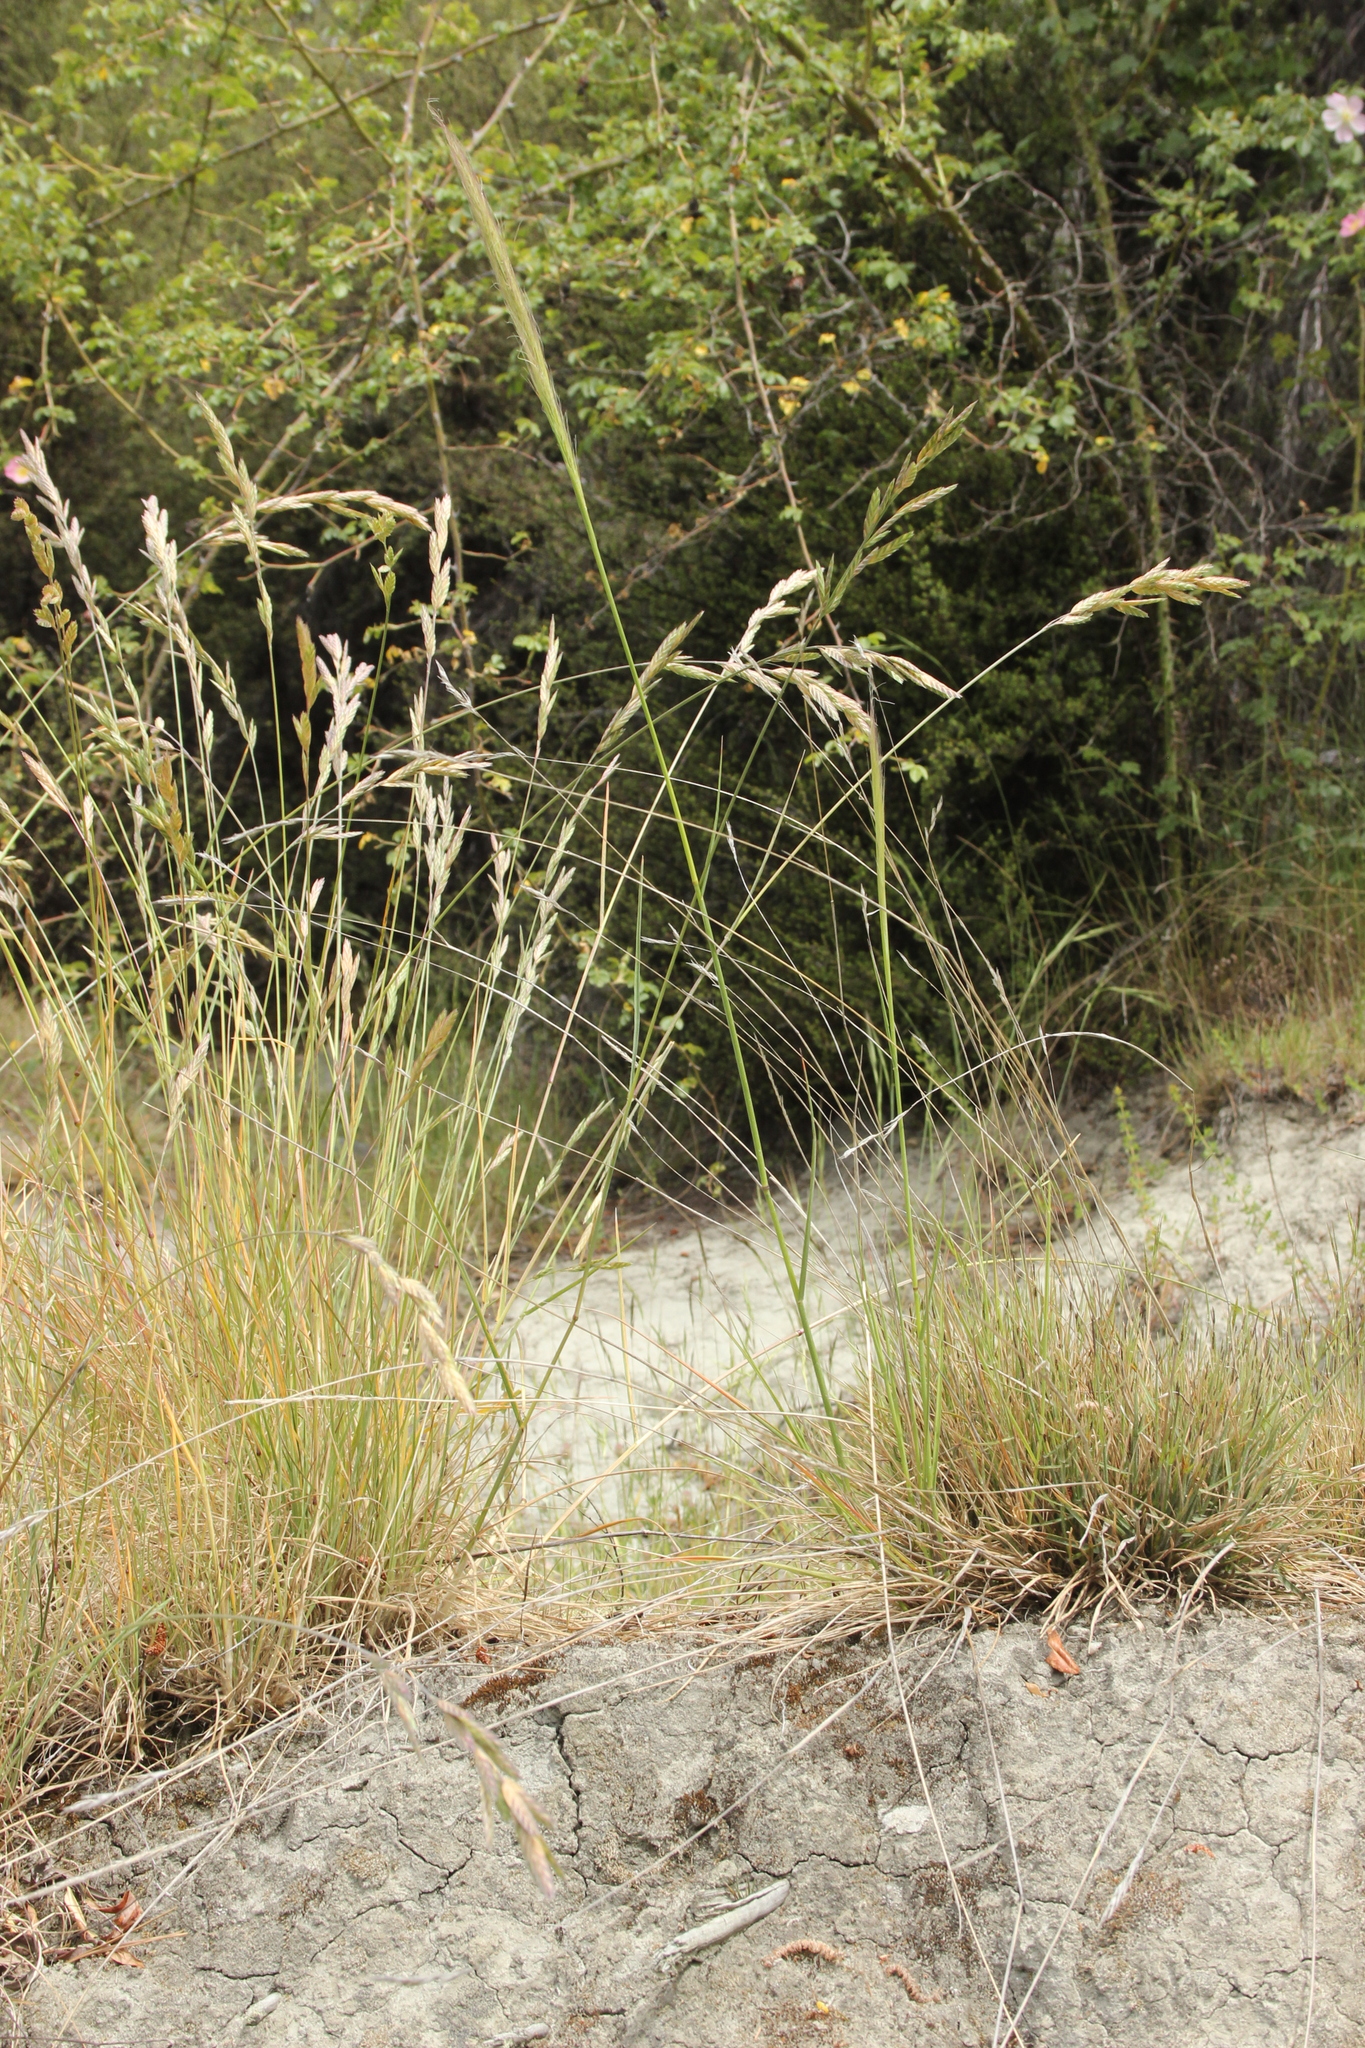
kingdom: Plantae
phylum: Tracheophyta
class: Liliopsida
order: Poales
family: Poaceae
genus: Dichelachne
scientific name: Dichelachne crinita
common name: Clovenfoot plumegrass
